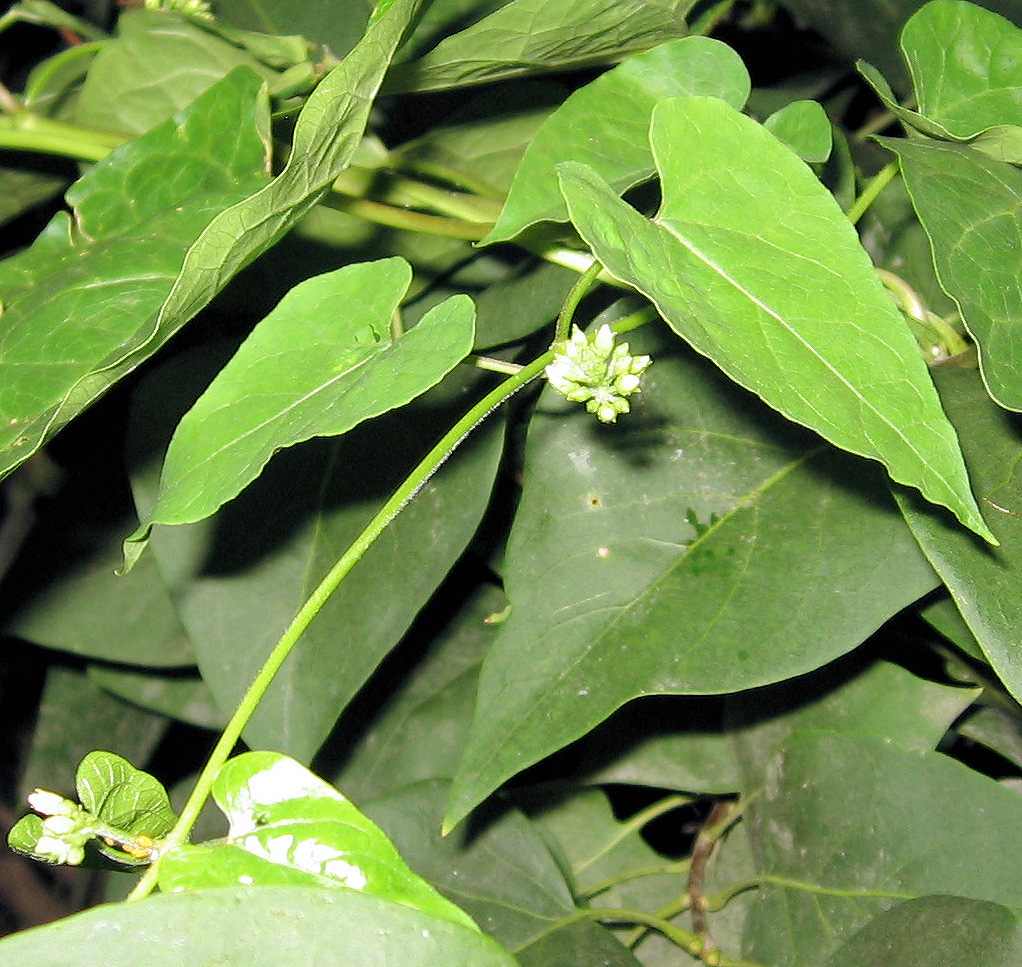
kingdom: Plantae
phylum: Tracheophyta
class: Magnoliopsida
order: Gentianales
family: Apocynaceae
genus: Cynanchum
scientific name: Cynanchum laeve
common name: Sandvine
